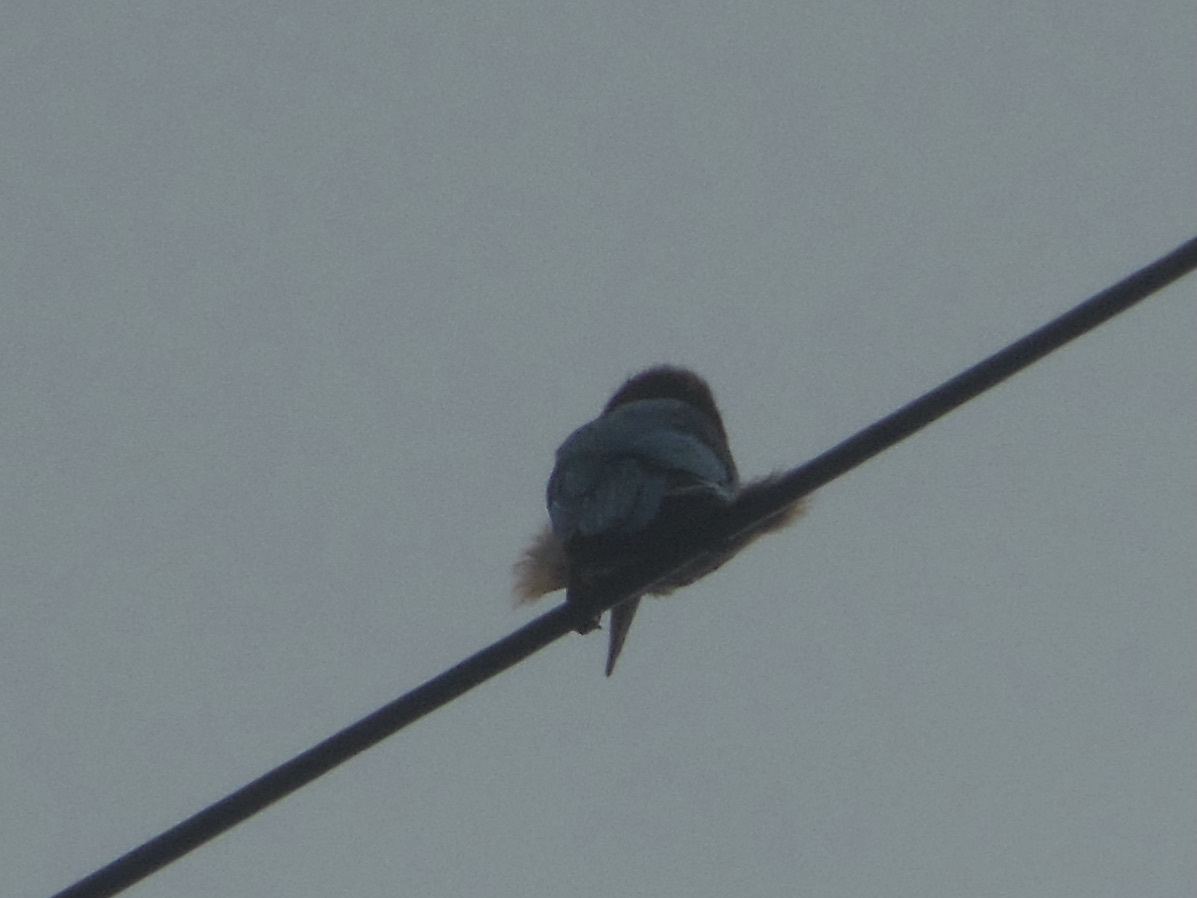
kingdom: Animalia
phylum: Chordata
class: Aves
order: Coraciiformes
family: Alcedinidae
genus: Halcyon
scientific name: Halcyon smyrnensis
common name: White-throated kingfisher
